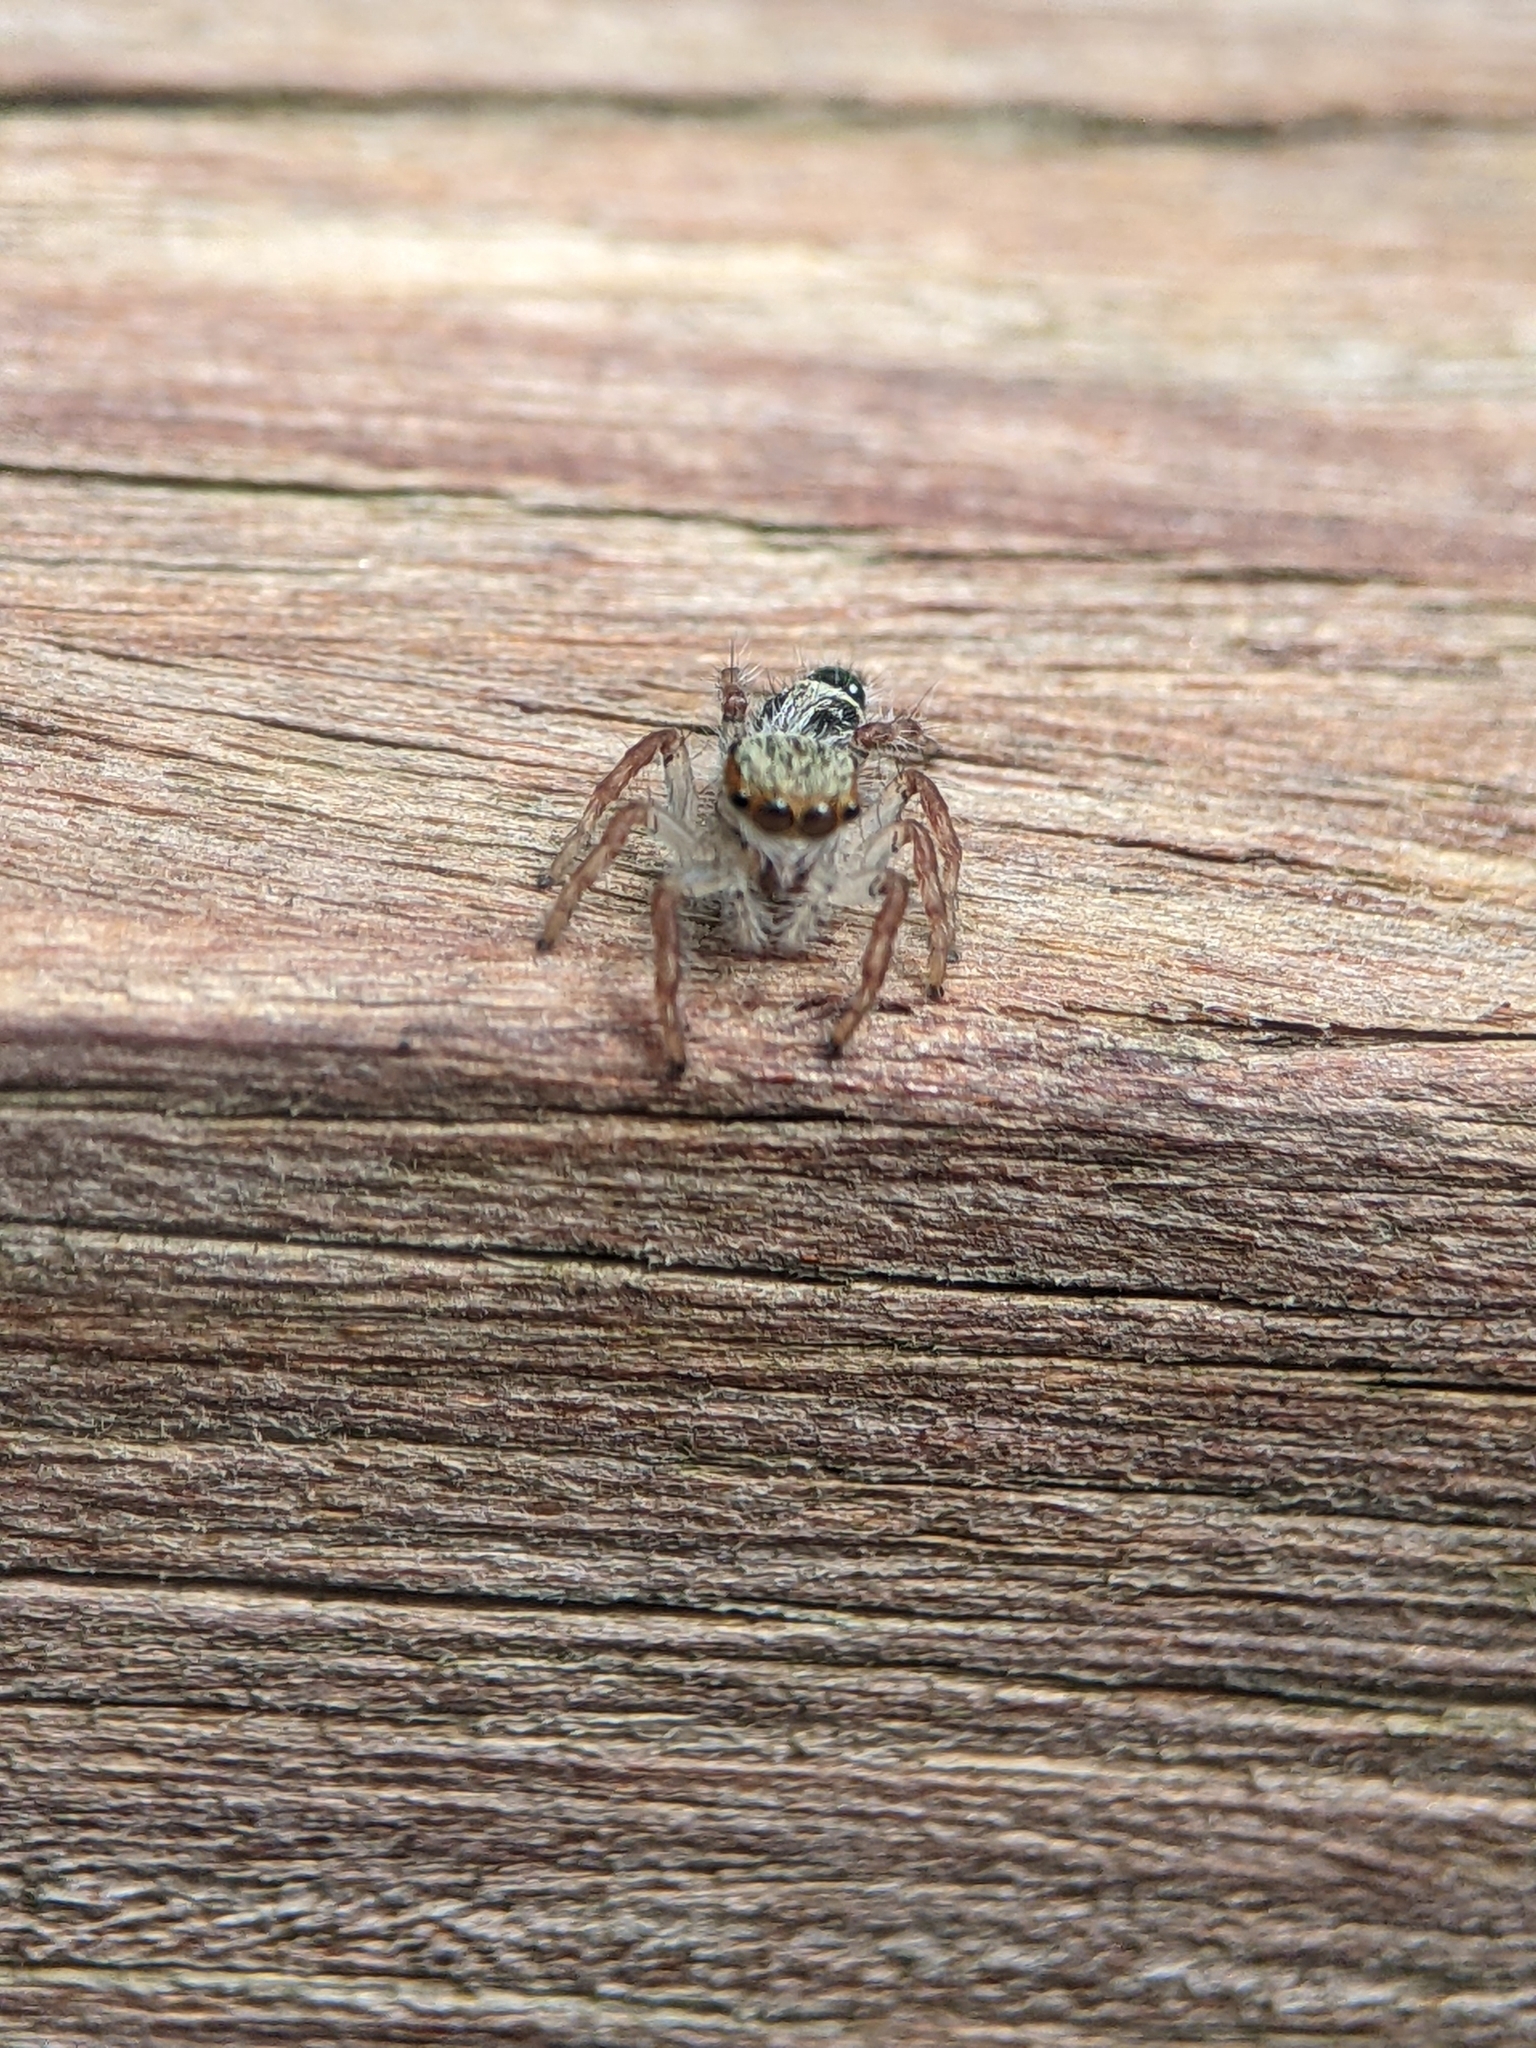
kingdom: Animalia
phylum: Arthropoda
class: Arachnida
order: Araneae
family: Salticidae
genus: Hyllus
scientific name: Hyllus diardi
